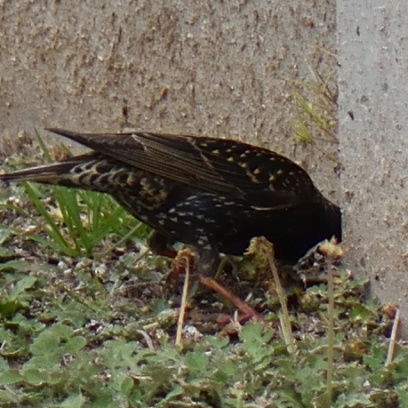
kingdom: Animalia
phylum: Chordata
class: Aves
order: Passeriformes
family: Sturnidae
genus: Sturnus
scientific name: Sturnus vulgaris
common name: Common starling
